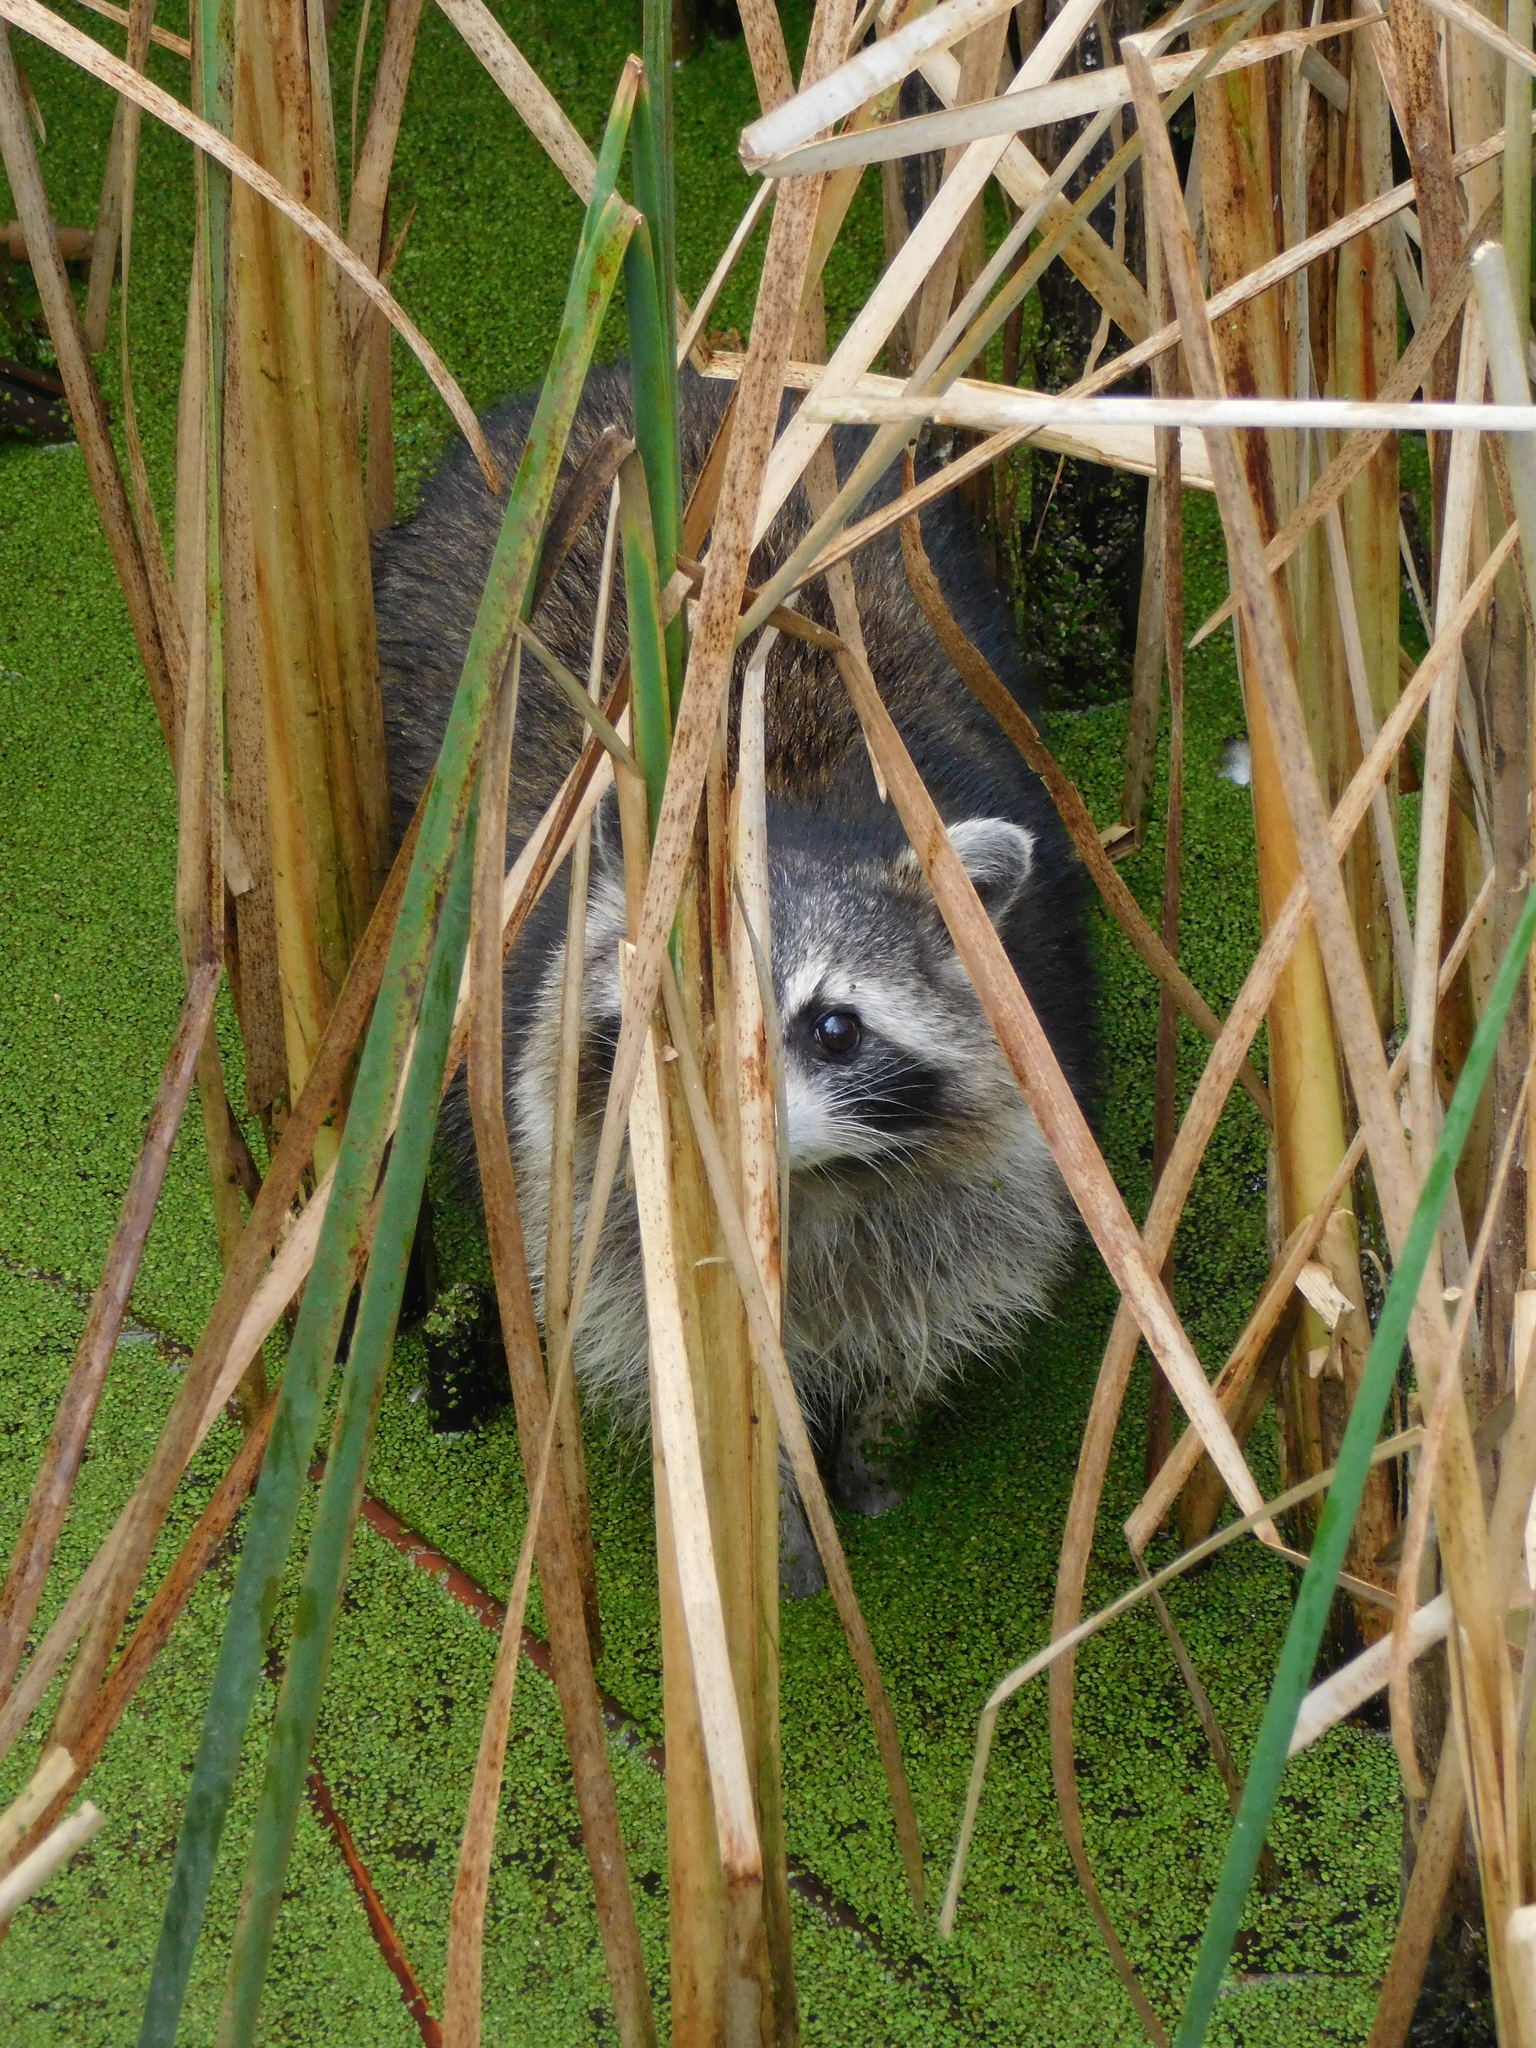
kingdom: Animalia
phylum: Chordata
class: Mammalia
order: Carnivora
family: Procyonidae
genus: Procyon
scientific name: Procyon lotor
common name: Raccoon
